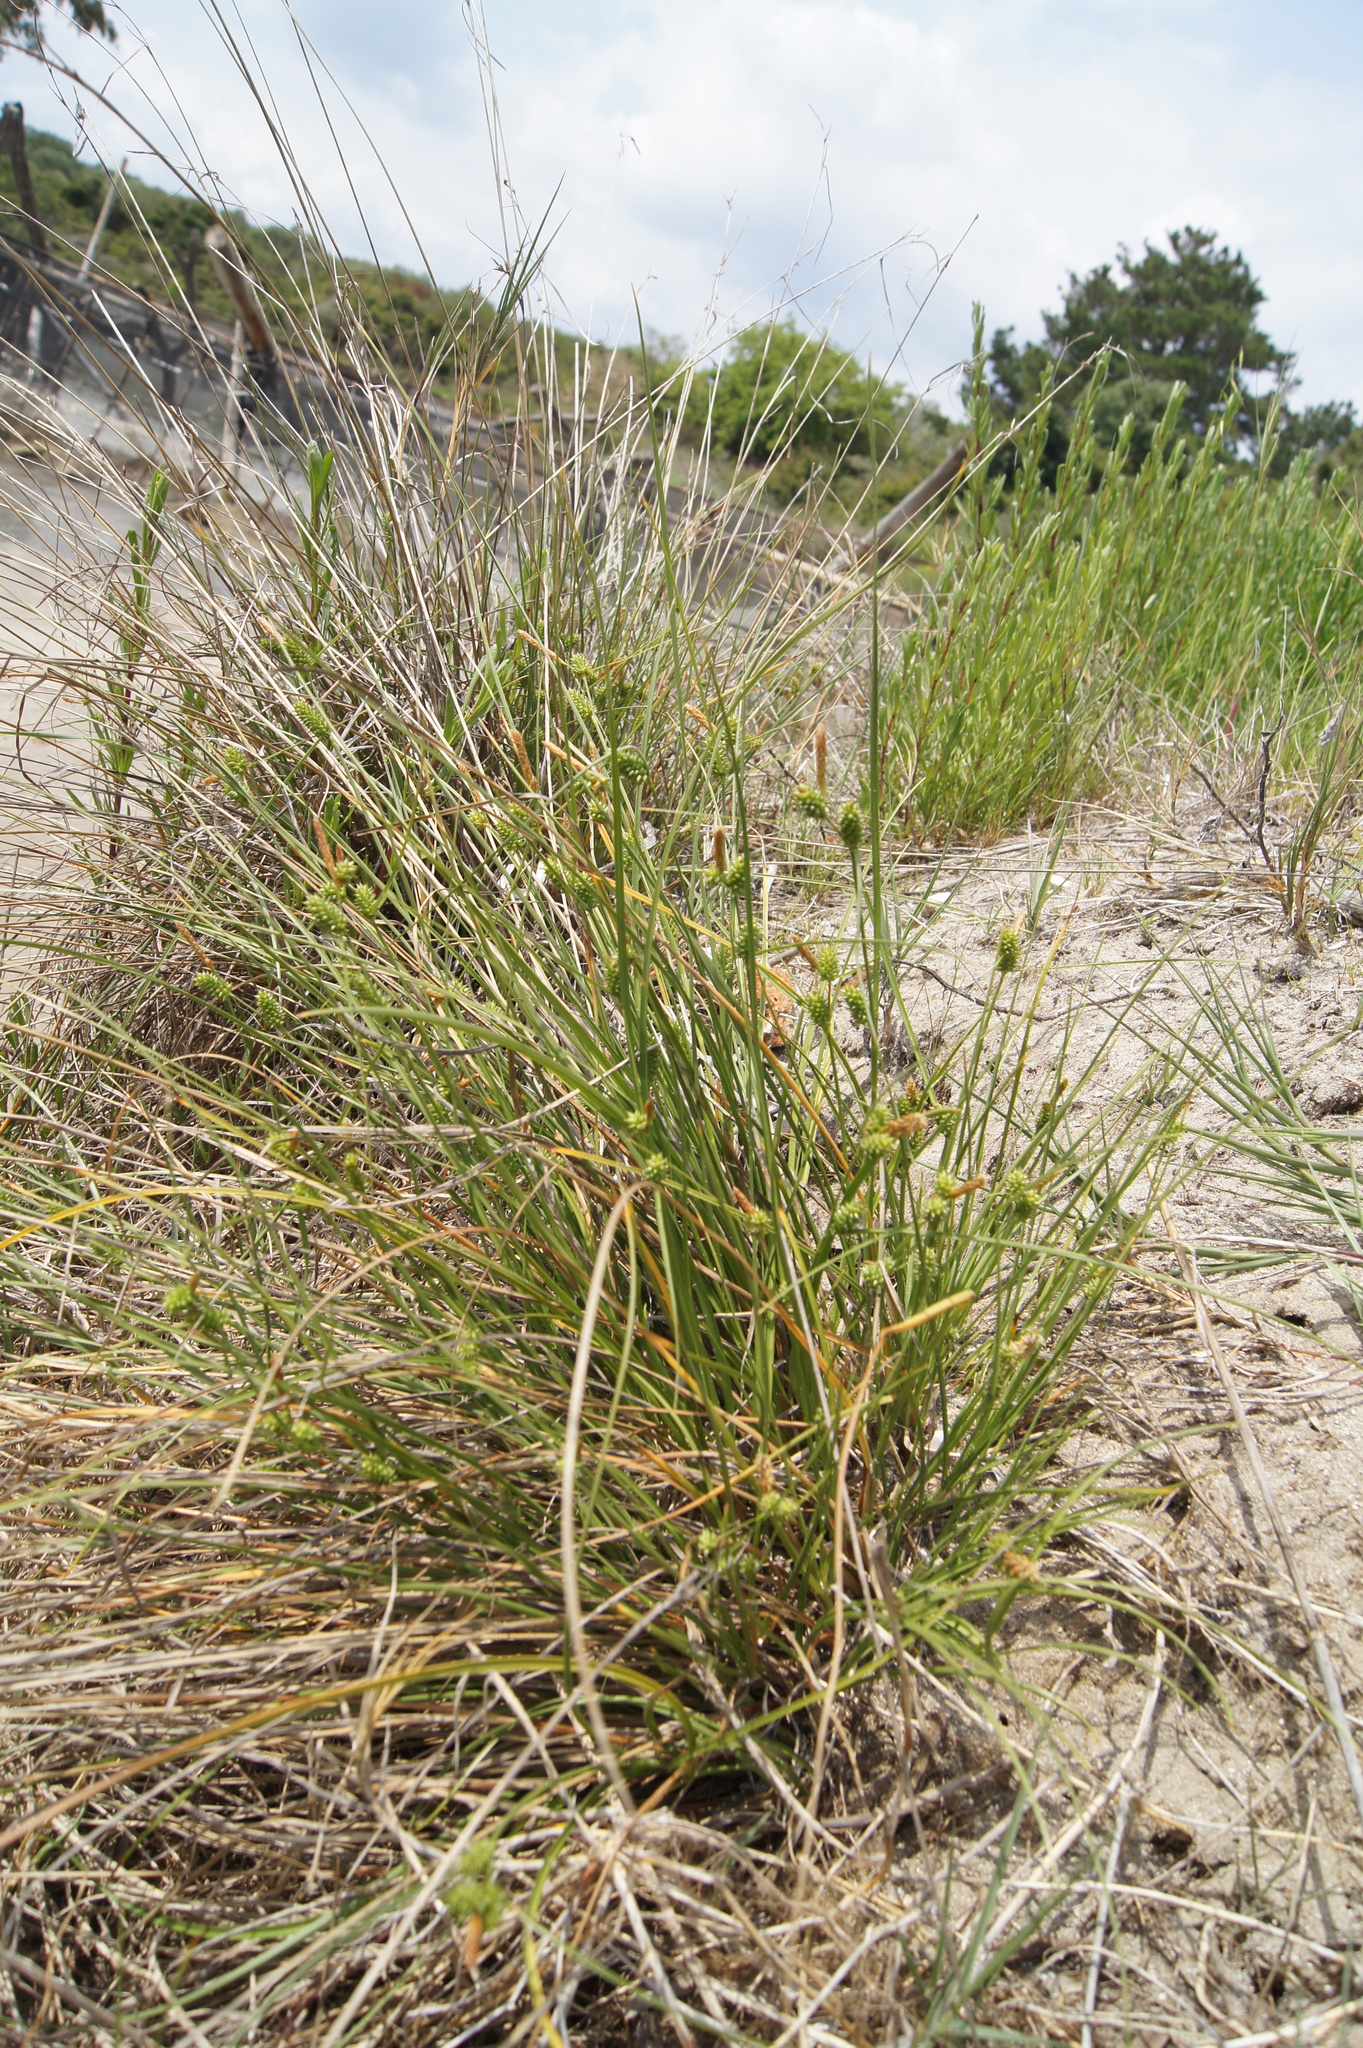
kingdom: Plantae
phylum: Tracheophyta
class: Liliopsida
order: Poales
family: Cyperaceae
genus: Carex
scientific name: Carex extensa
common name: Long-bracted sedge
